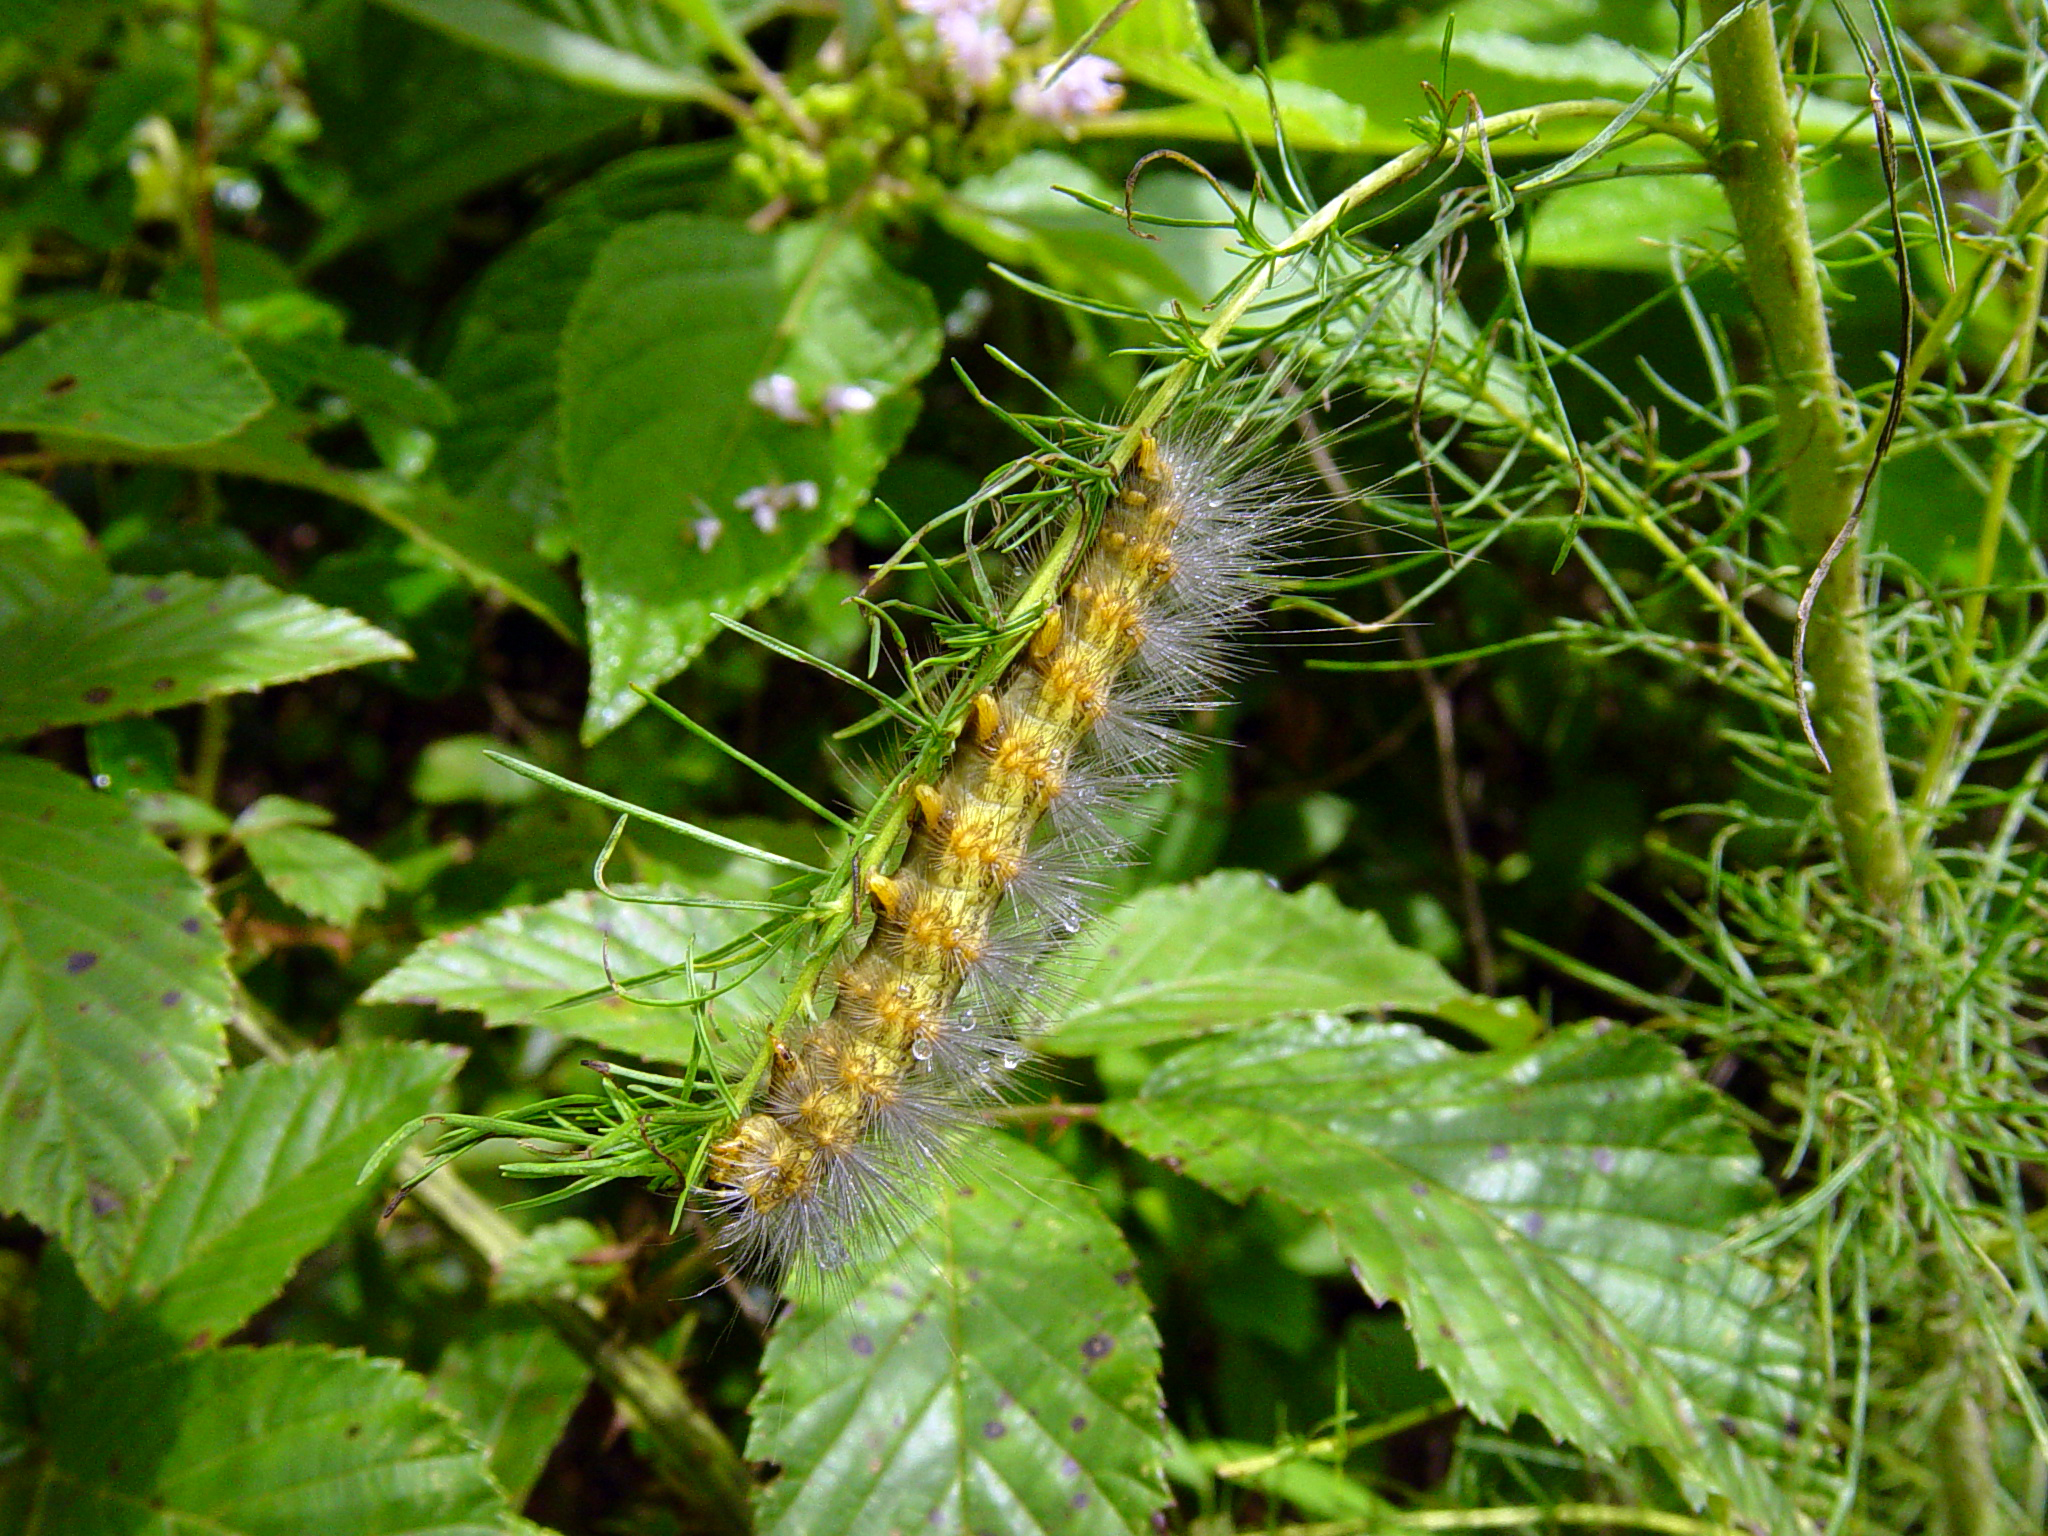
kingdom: Animalia
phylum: Arthropoda
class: Insecta
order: Lepidoptera
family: Erebidae
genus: Estigmene
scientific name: Estigmene acrea
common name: Salt marsh moth
